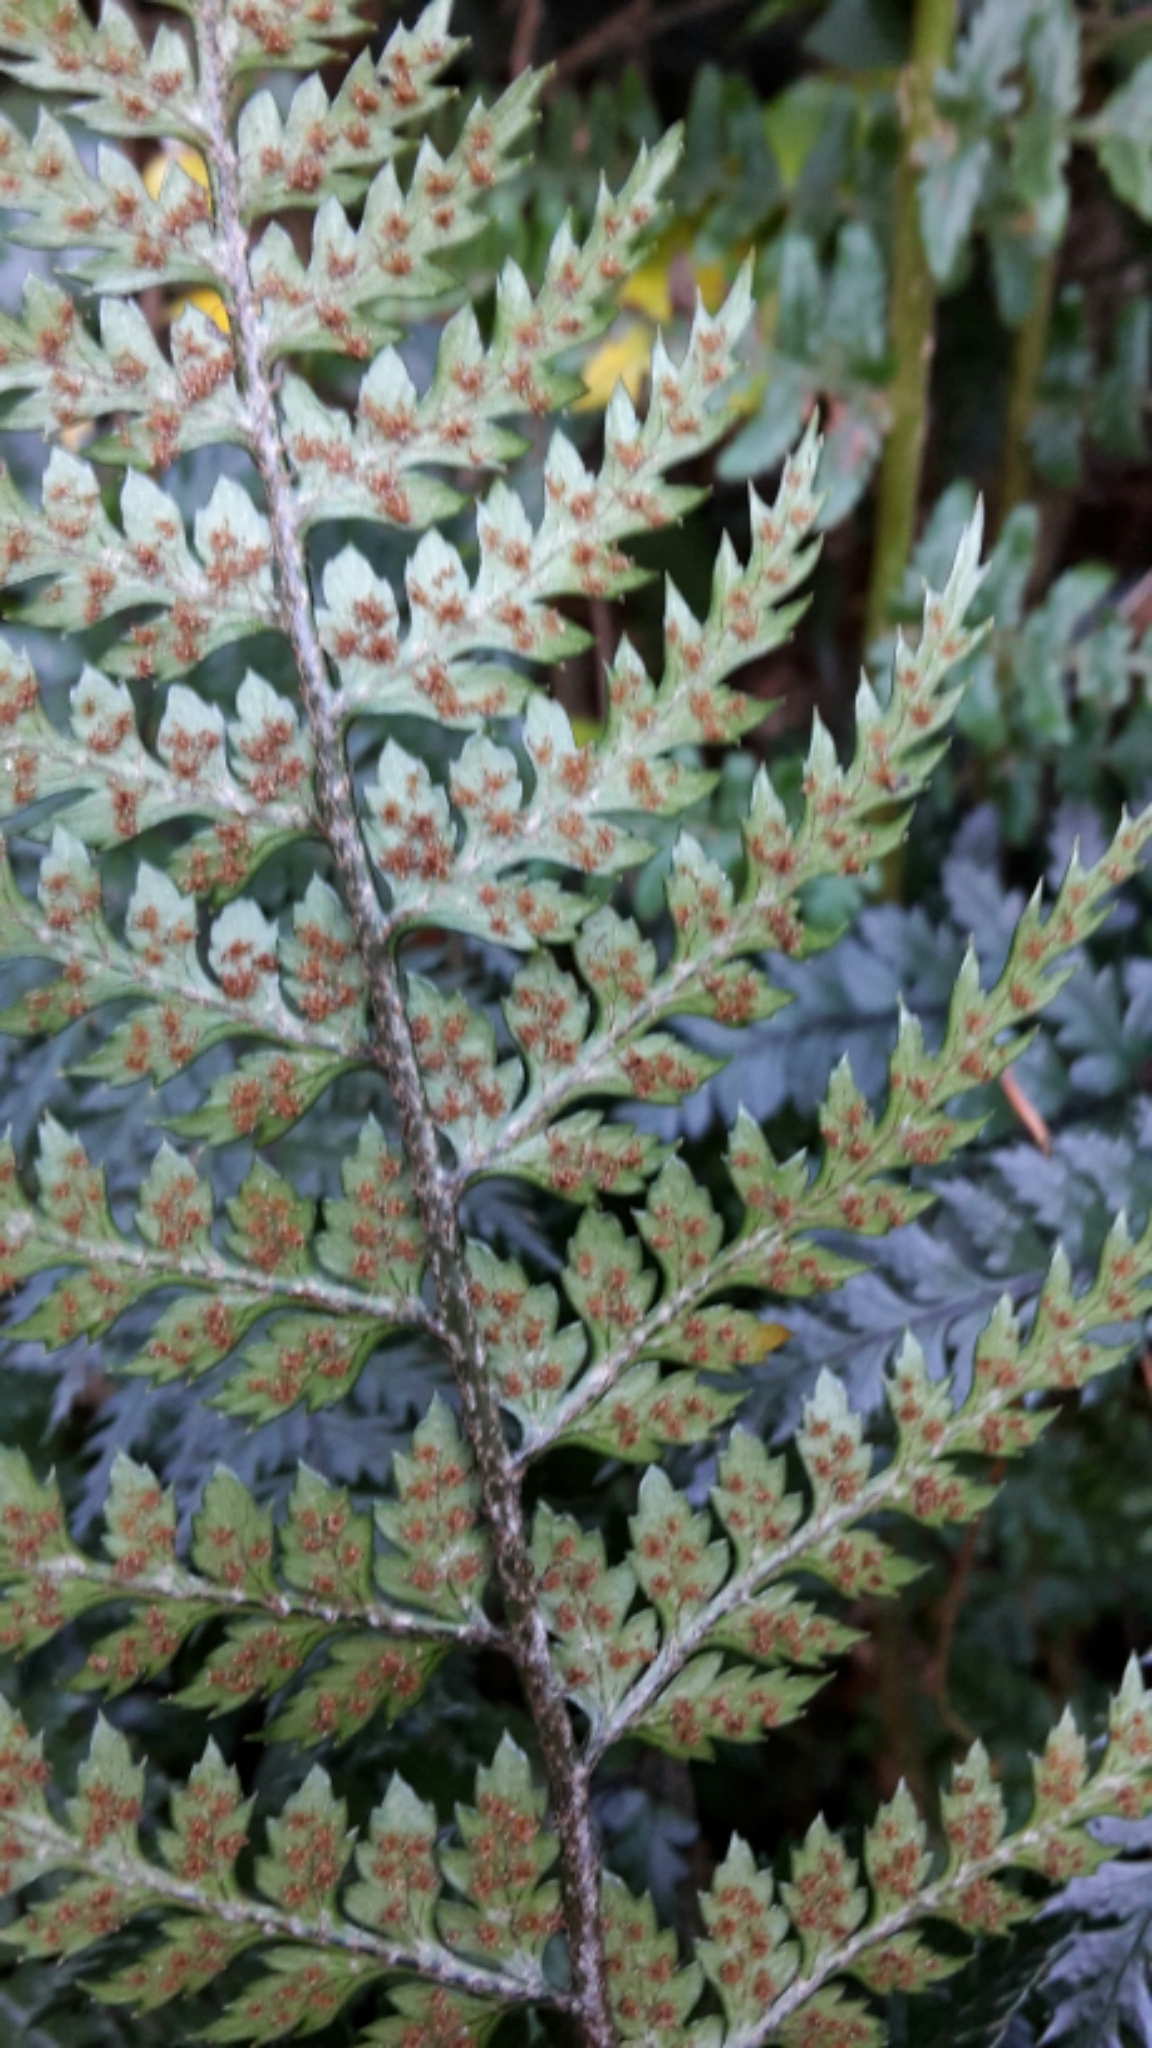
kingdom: Plantae
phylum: Tracheophyta
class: Polypodiopsida
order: Polypodiales
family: Dryopteridaceae
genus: Polystichum
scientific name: Polystichum neozelandicum
